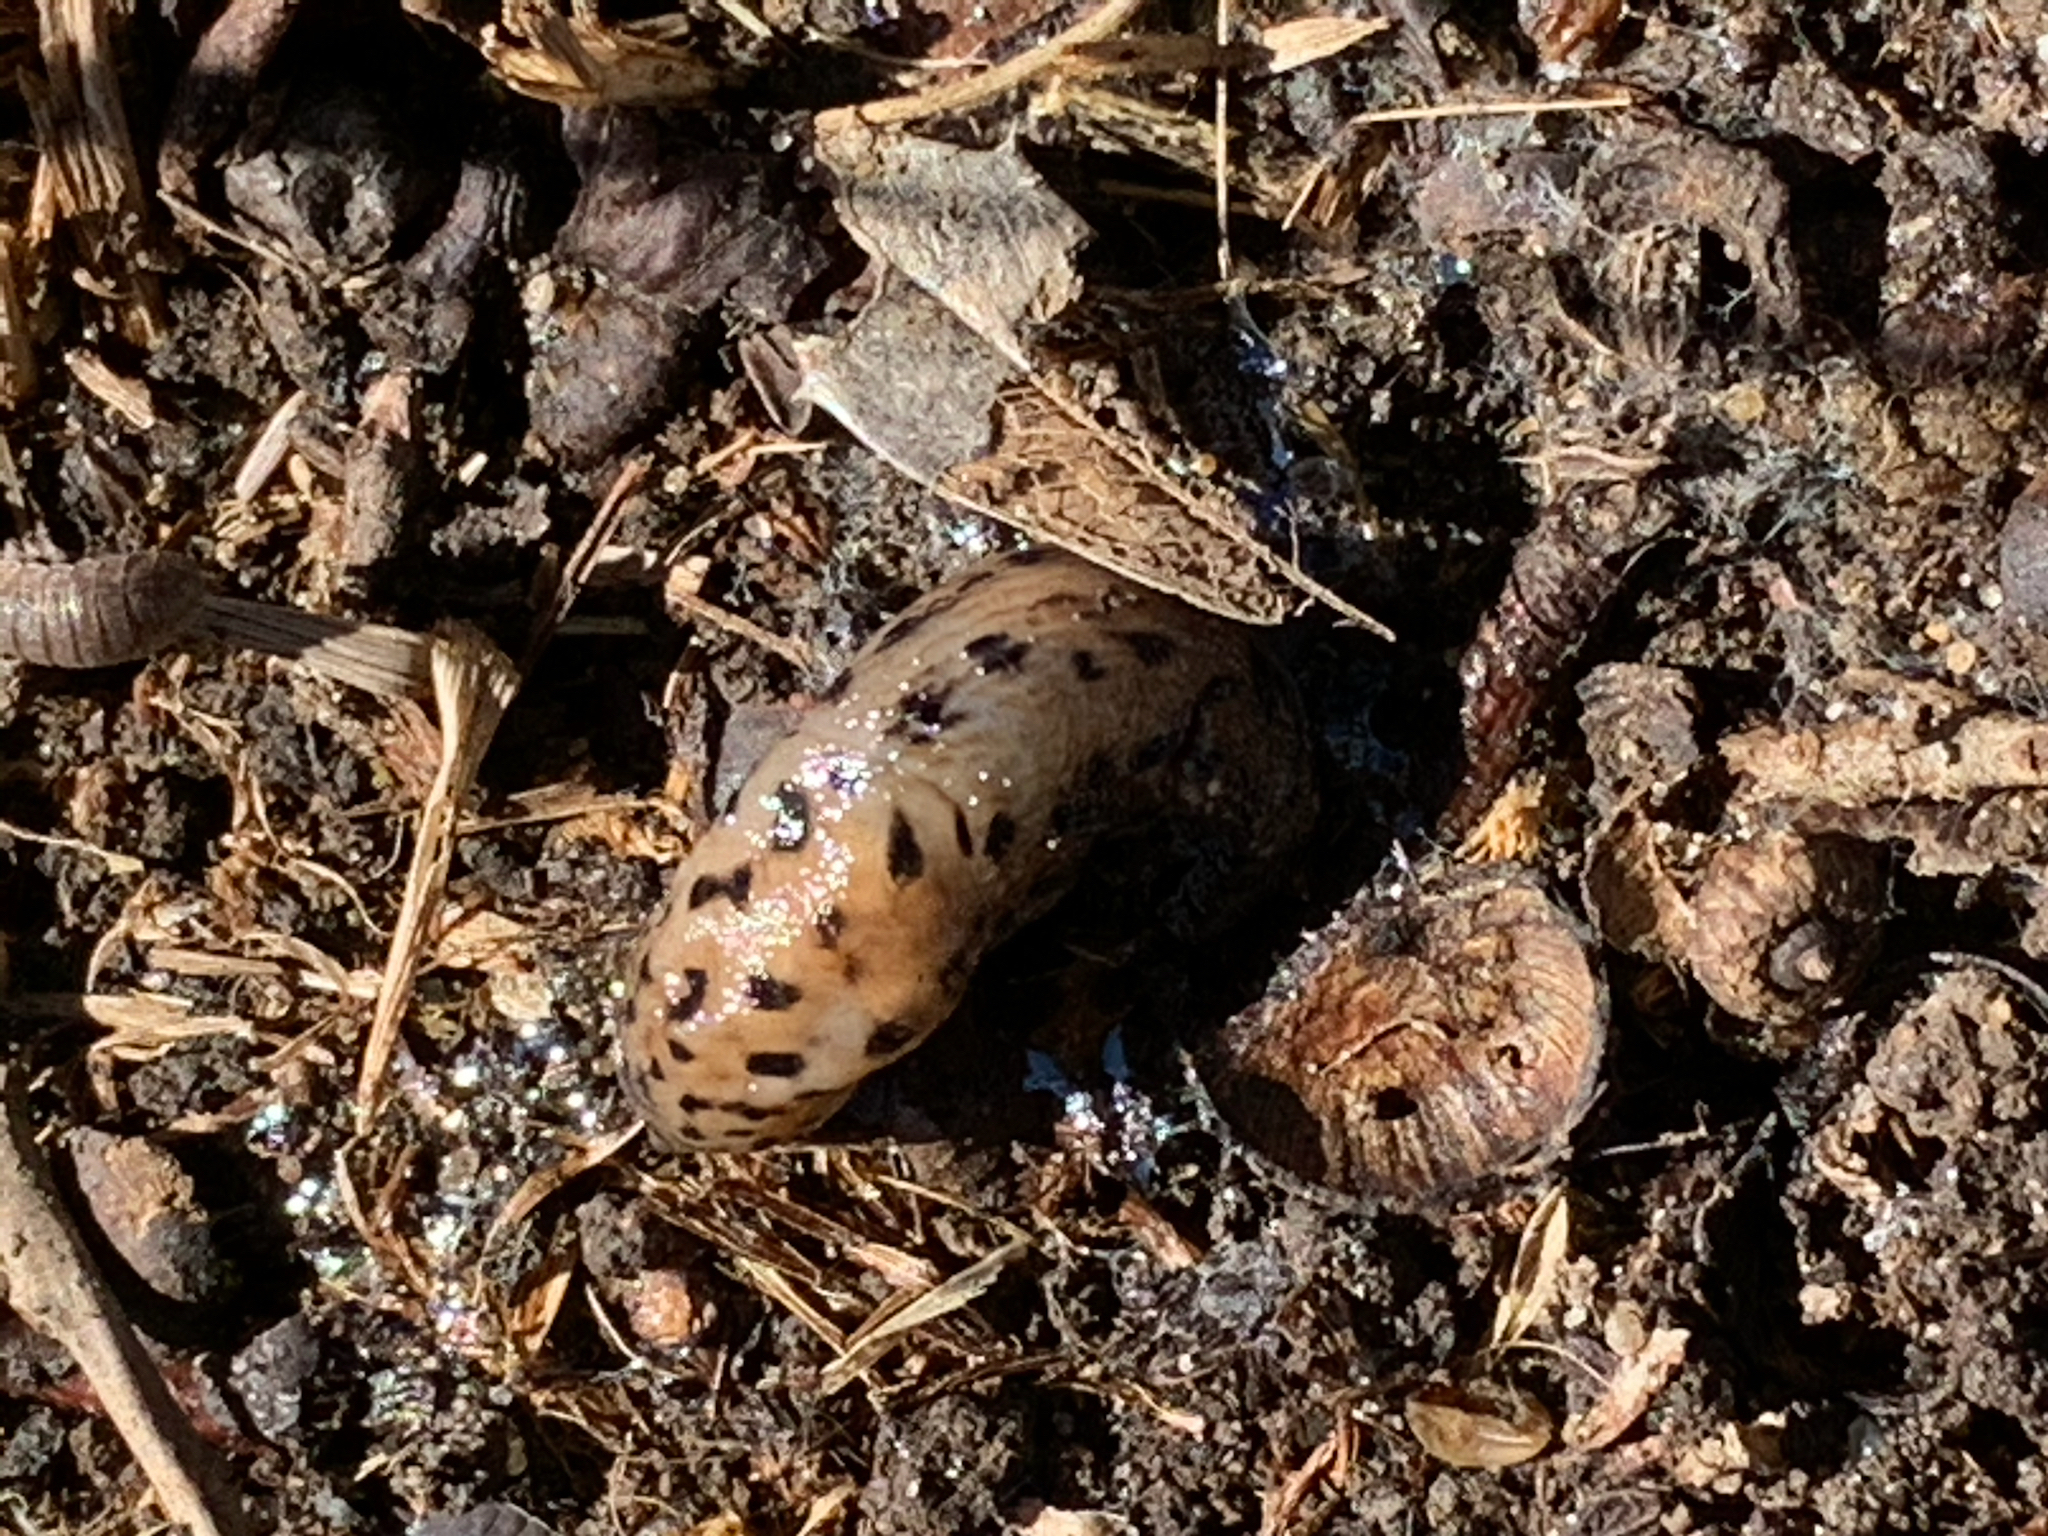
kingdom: Animalia
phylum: Mollusca
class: Gastropoda
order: Stylommatophora
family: Limacidae
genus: Limax
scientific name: Limax maximus
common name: Great grey slug
